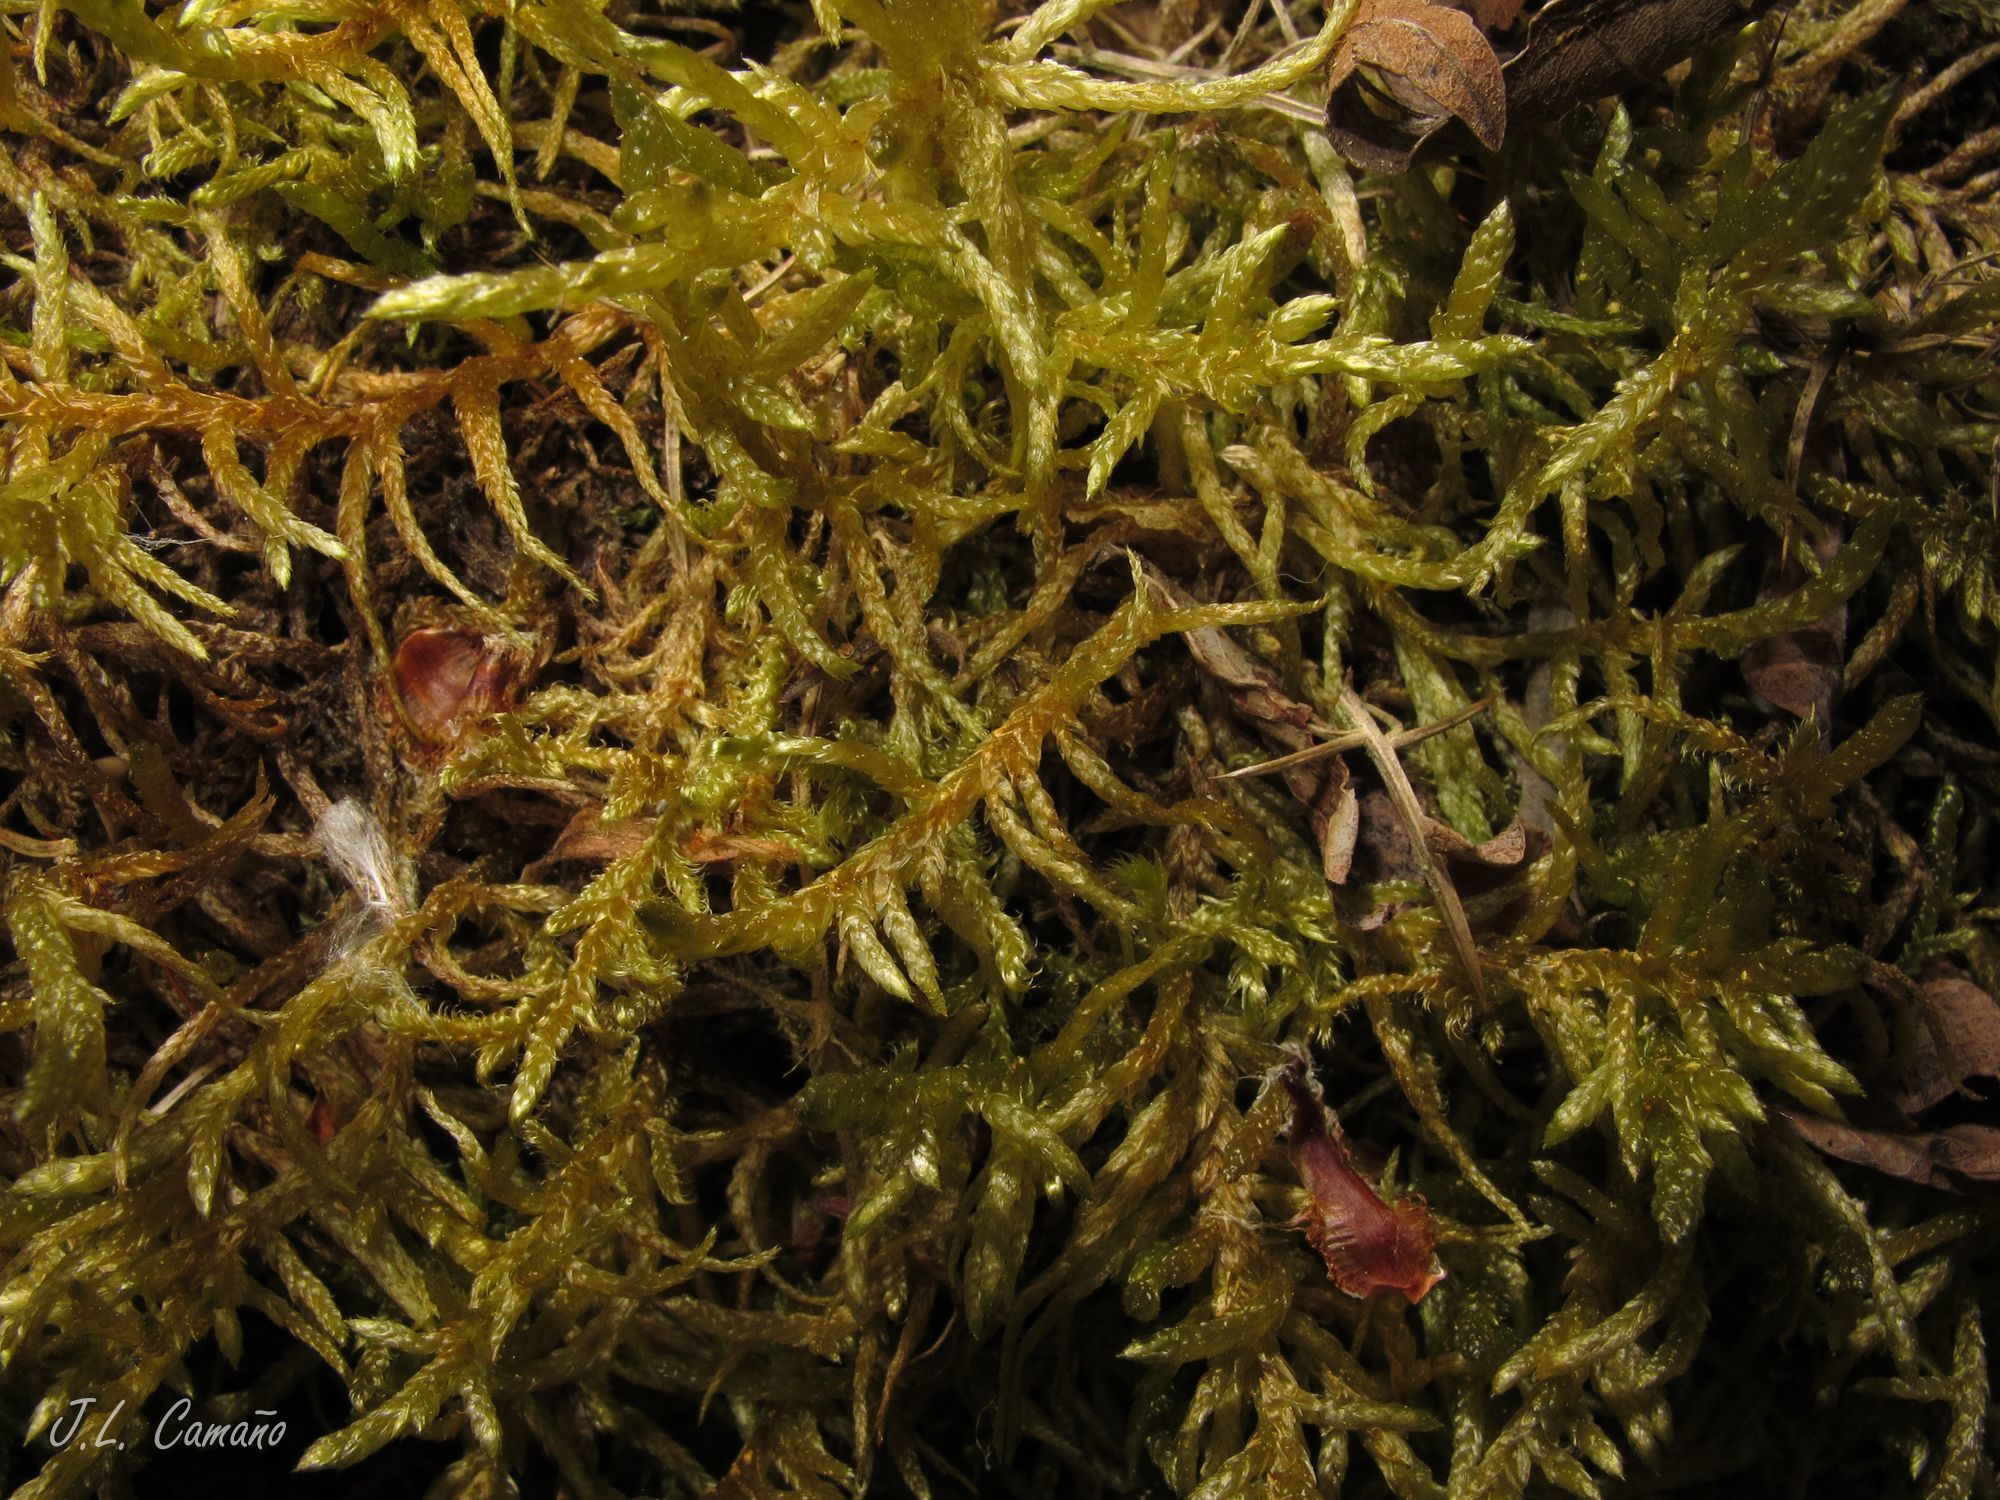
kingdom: Plantae
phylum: Bryophyta
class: Bryopsida
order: Hypnales
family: Brachytheciaceae
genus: Pseudoscleropodium
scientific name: Pseudoscleropodium purum
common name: Neat feather-moss
